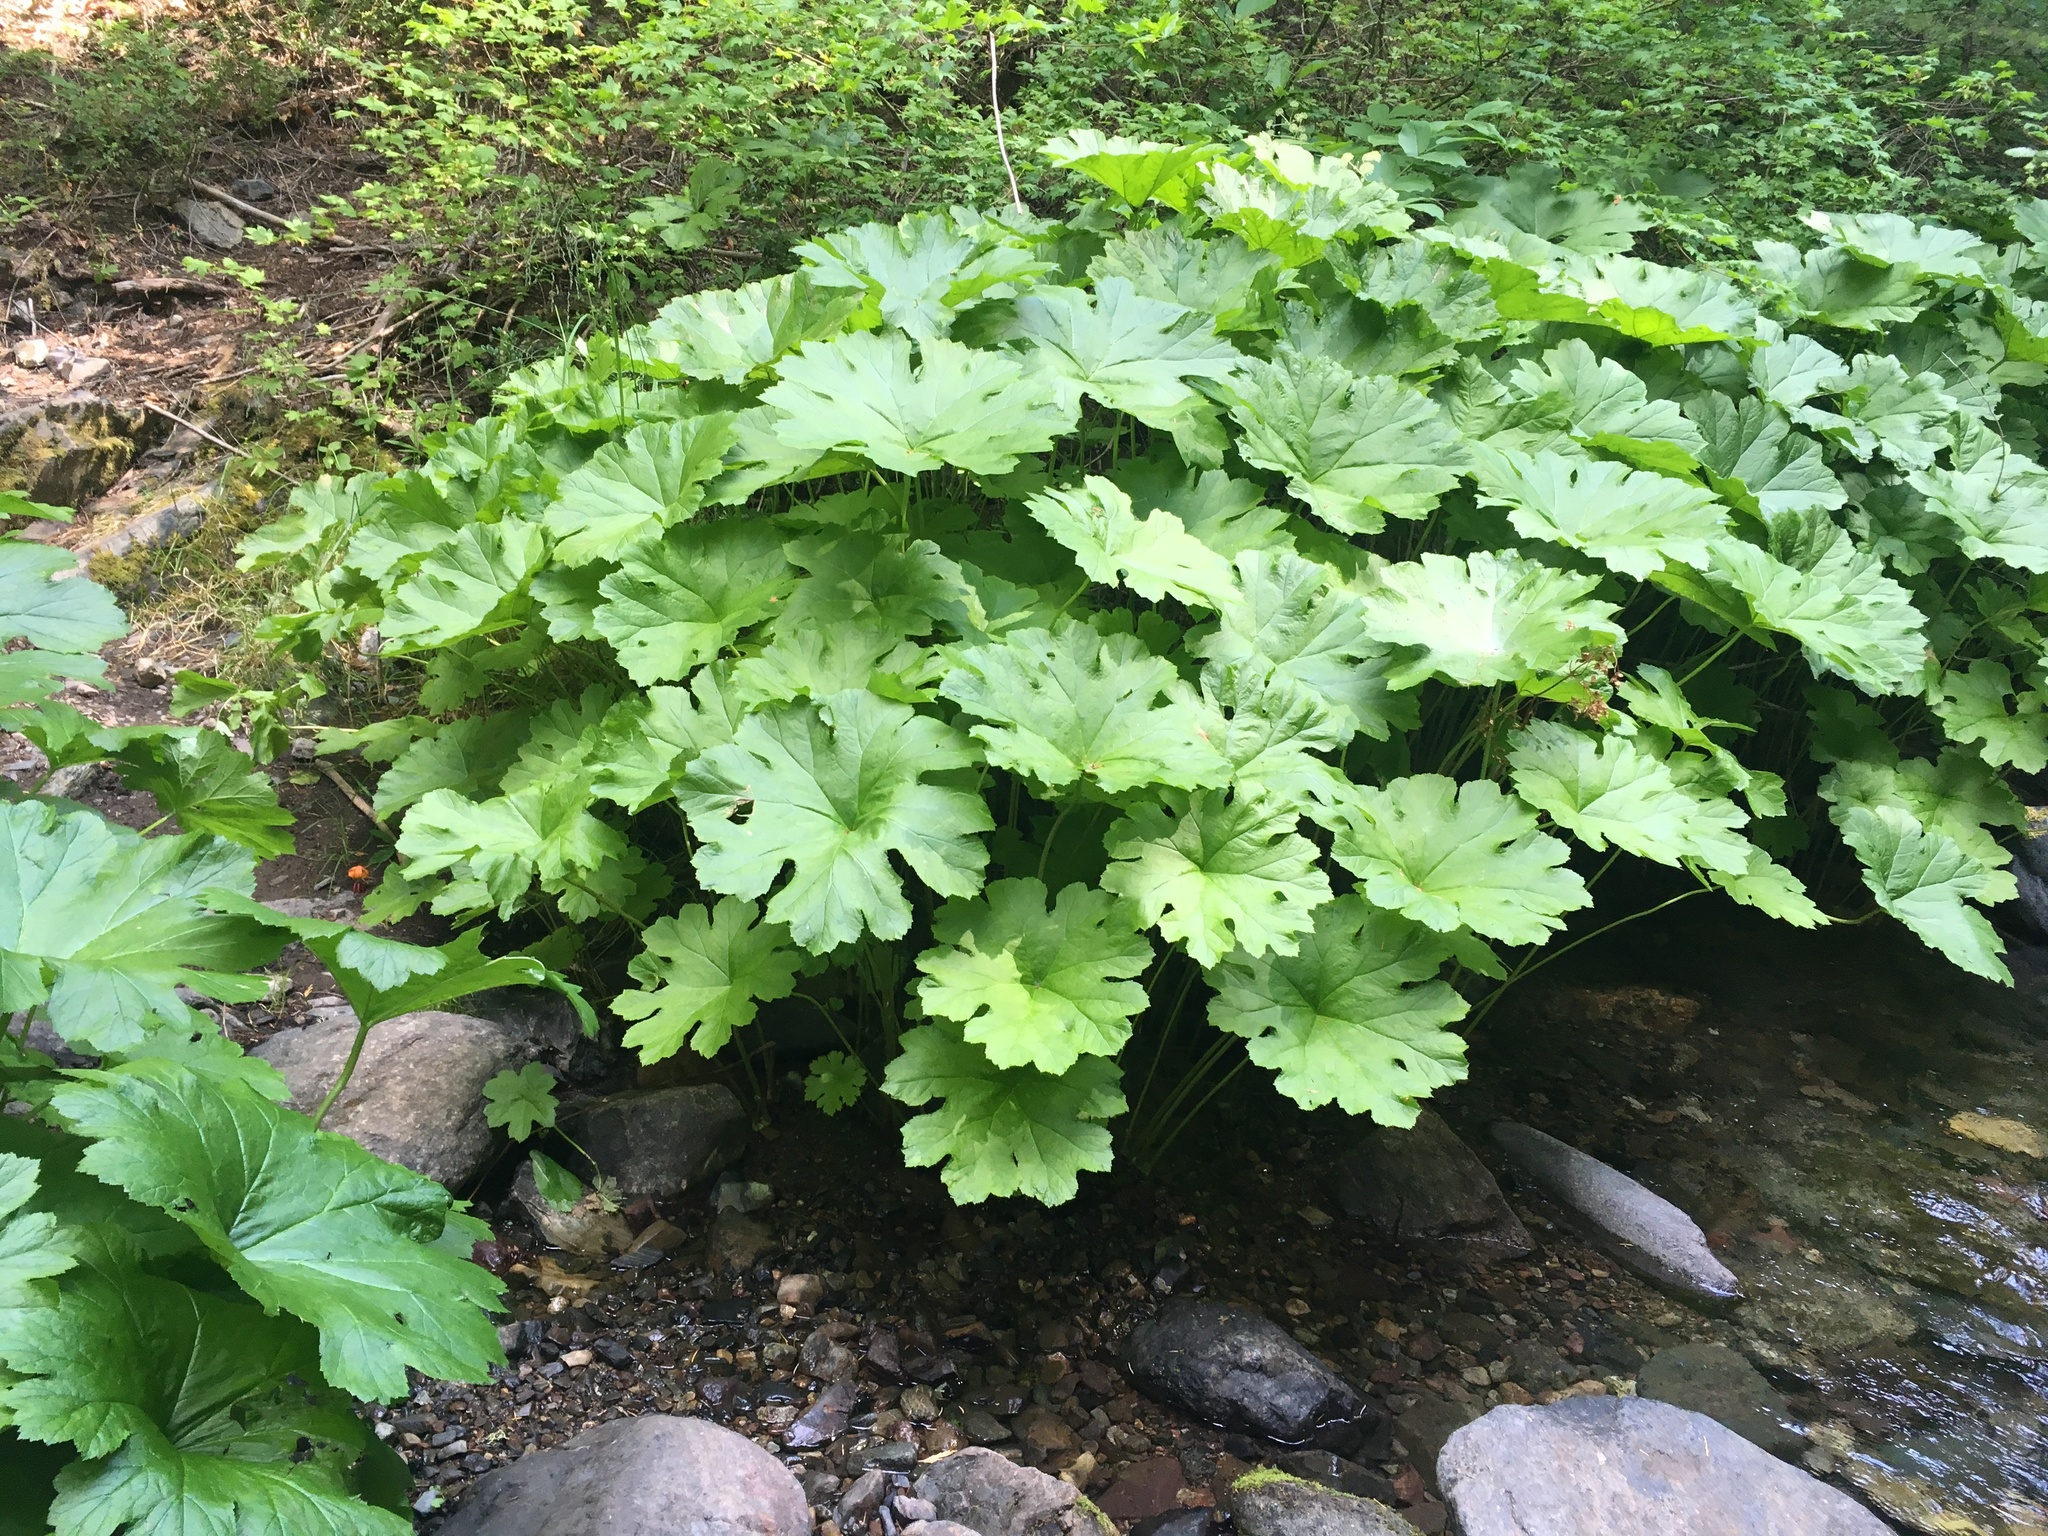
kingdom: Plantae
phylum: Tracheophyta
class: Magnoliopsida
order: Saxifragales
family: Saxifragaceae
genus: Darmera
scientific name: Darmera peltata
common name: Indian-rhubarb
